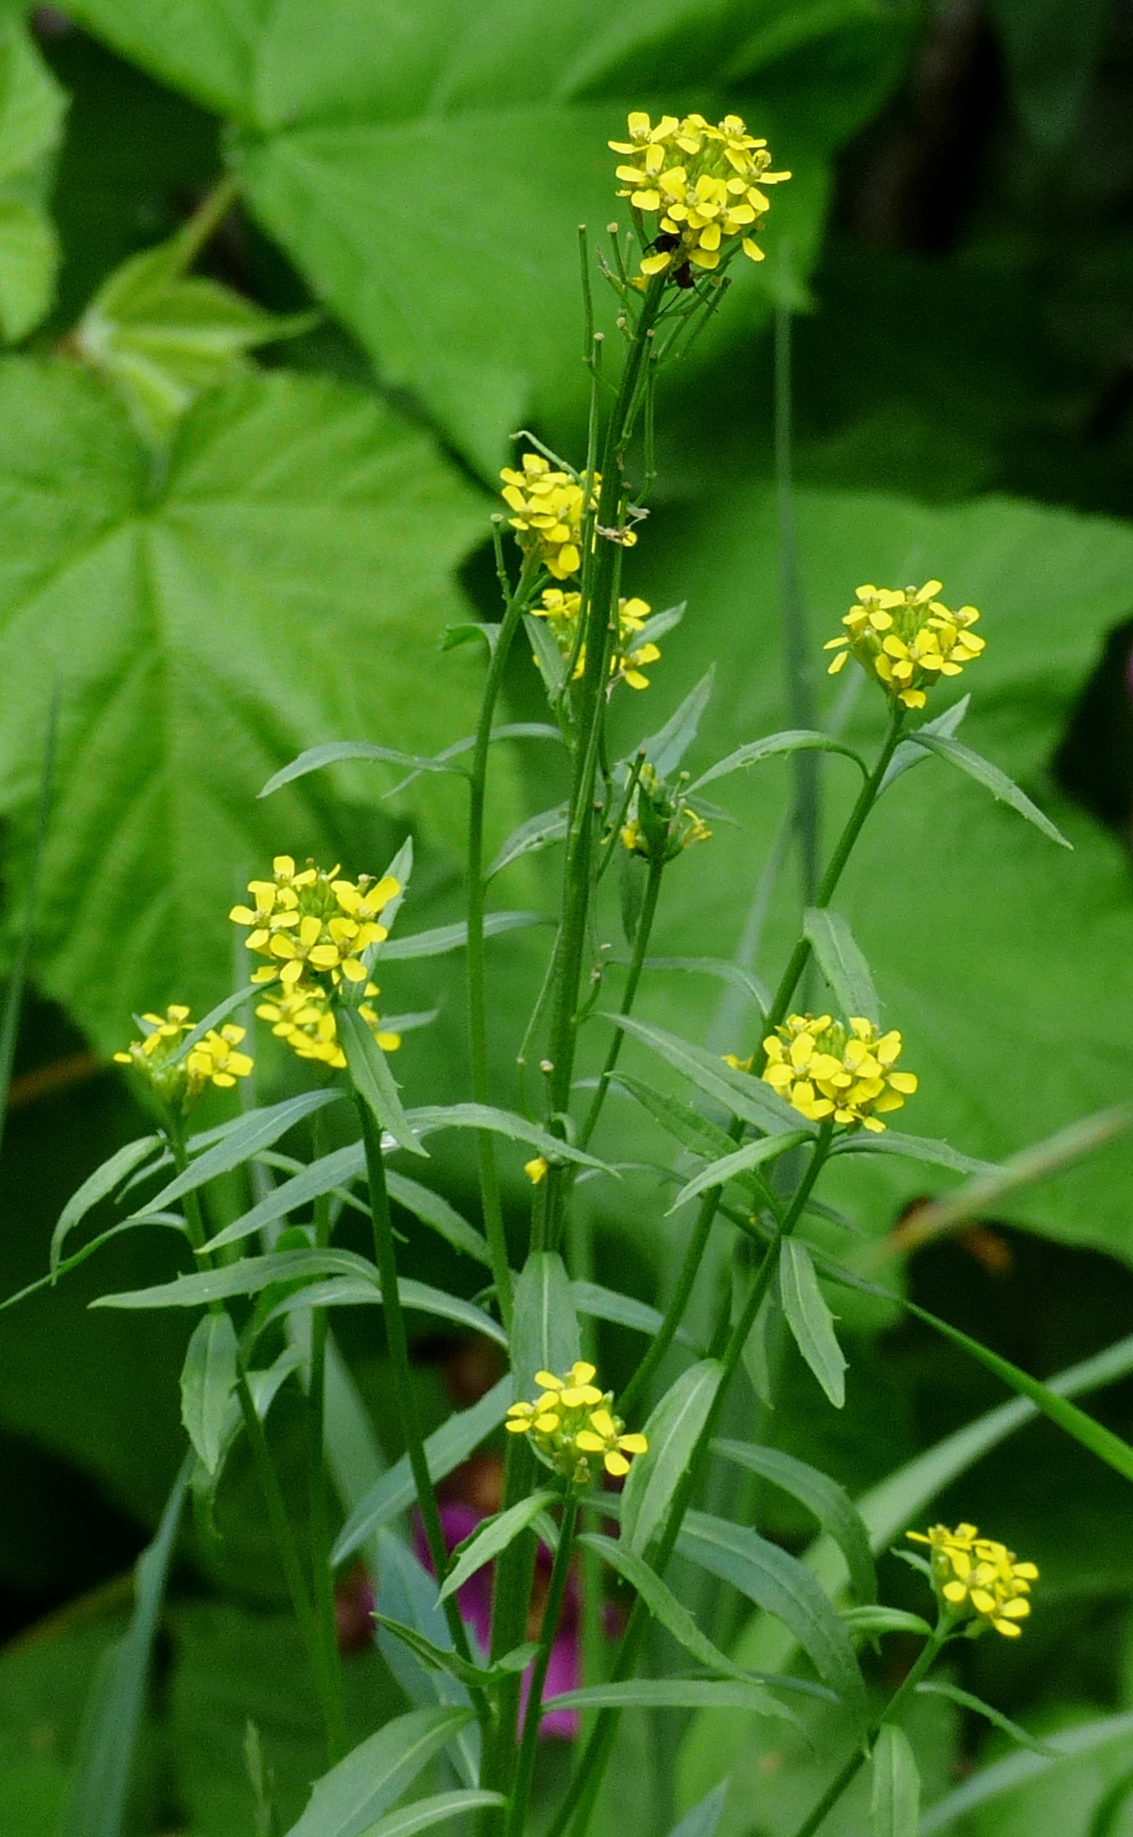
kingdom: Plantae
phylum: Tracheophyta
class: Magnoliopsida
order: Brassicales
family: Brassicaceae
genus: Erysimum
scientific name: Erysimum hieraciifolium
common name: European wallflower
